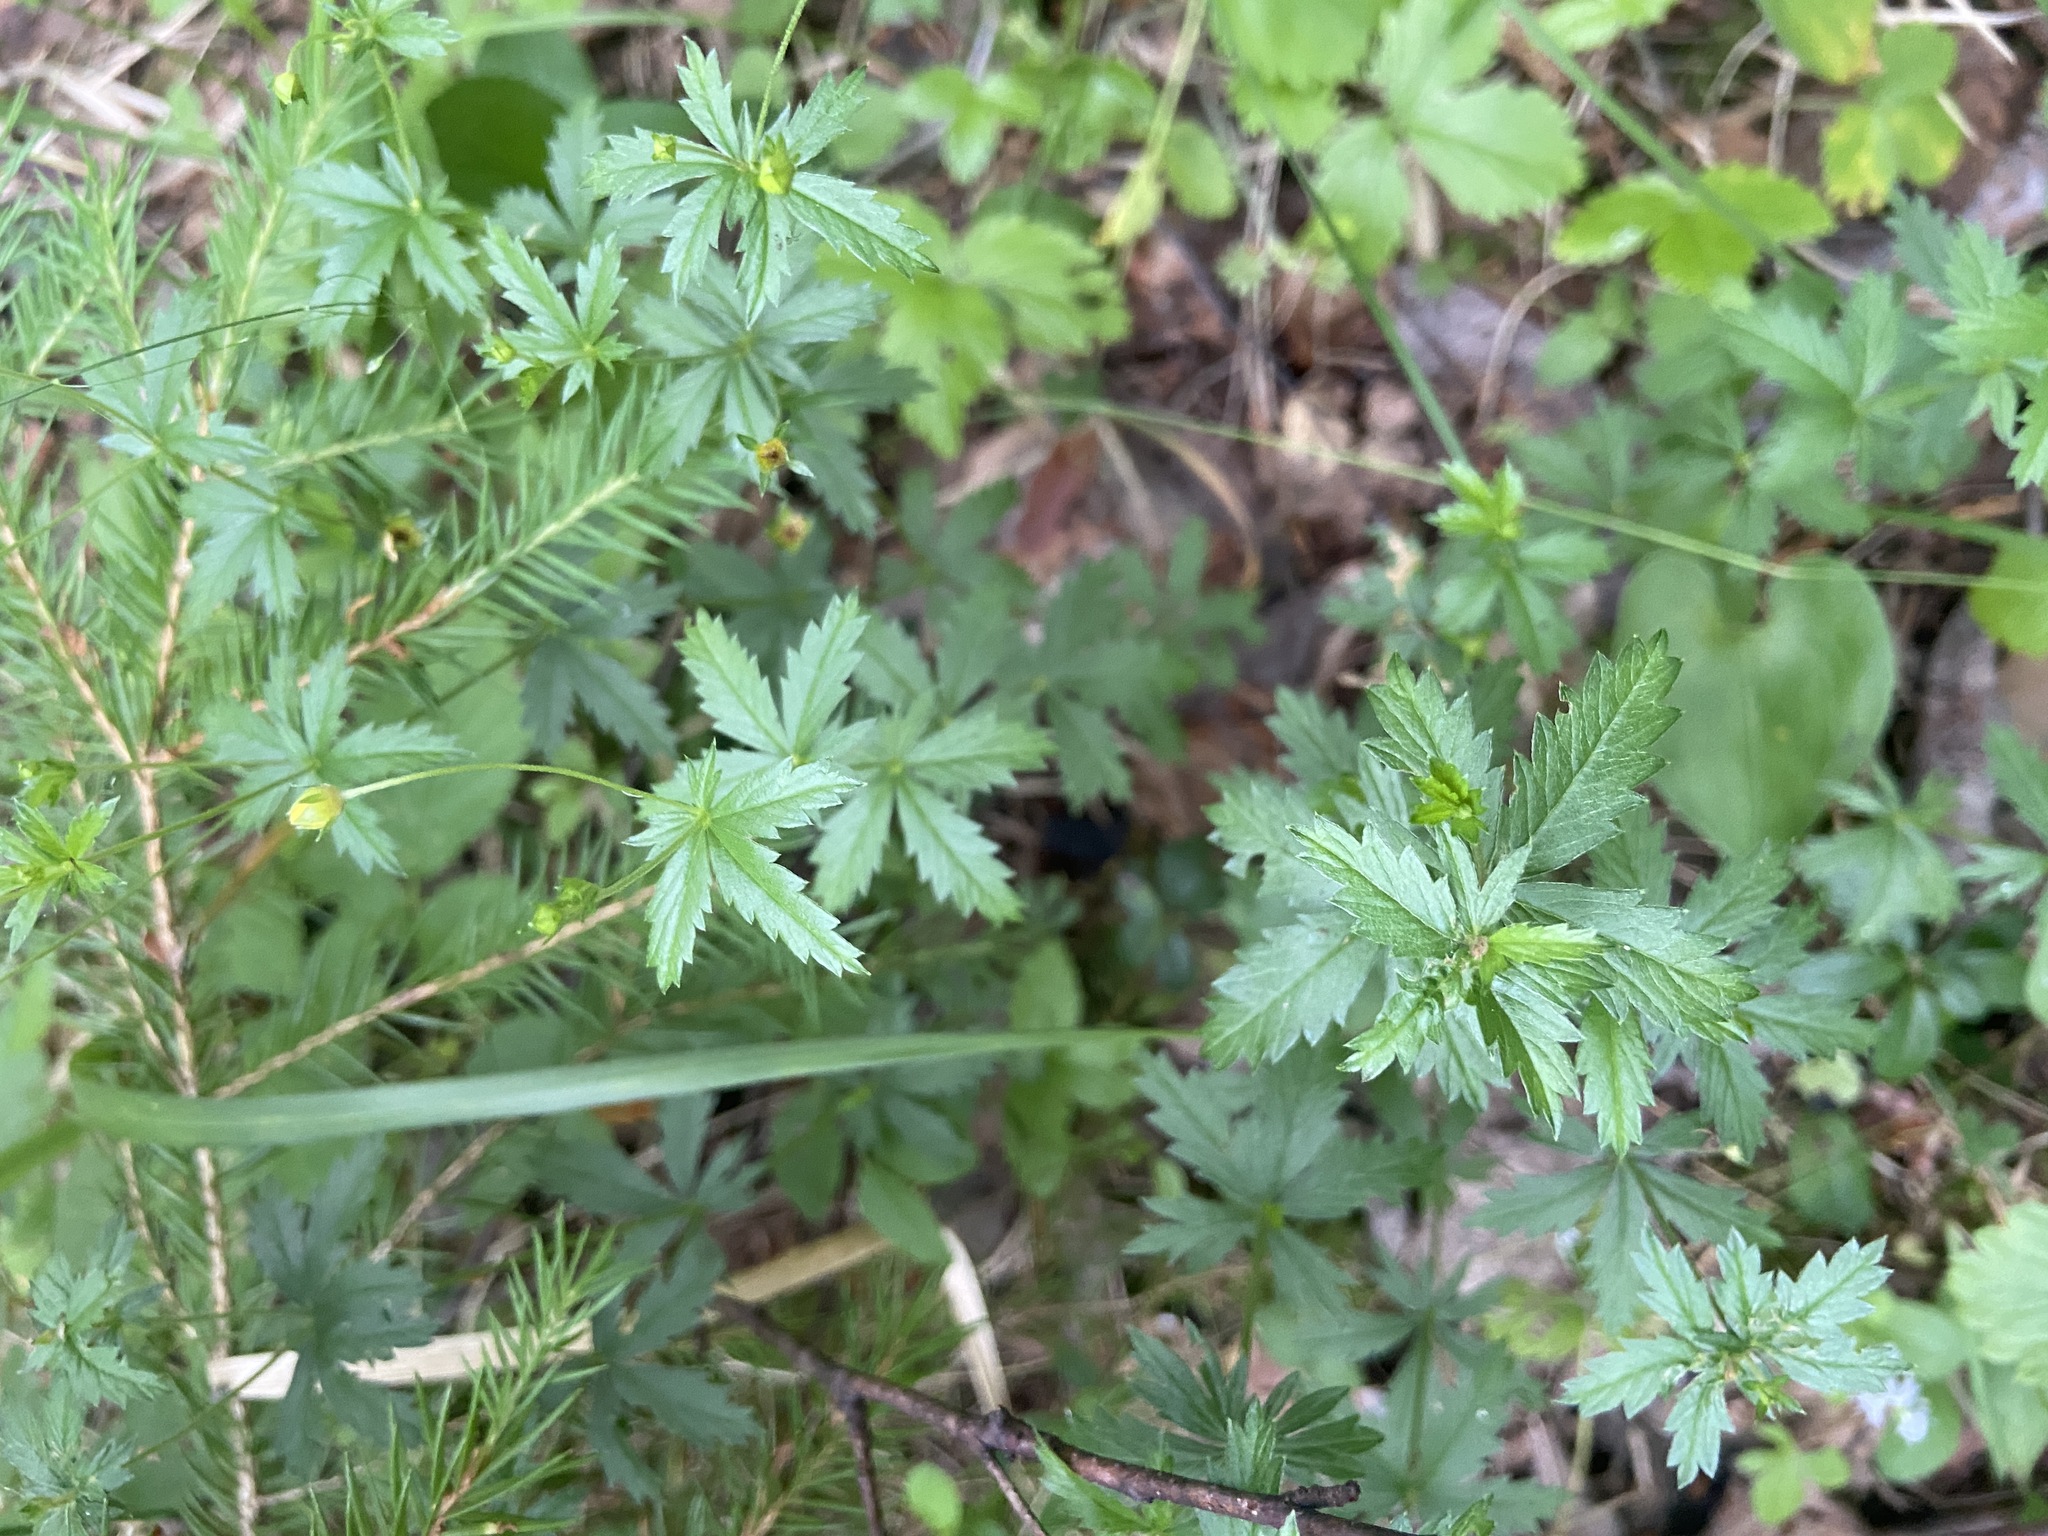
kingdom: Plantae
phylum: Tracheophyta
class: Magnoliopsida
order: Rosales
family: Rosaceae
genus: Potentilla
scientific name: Potentilla erecta
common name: Tormentil
